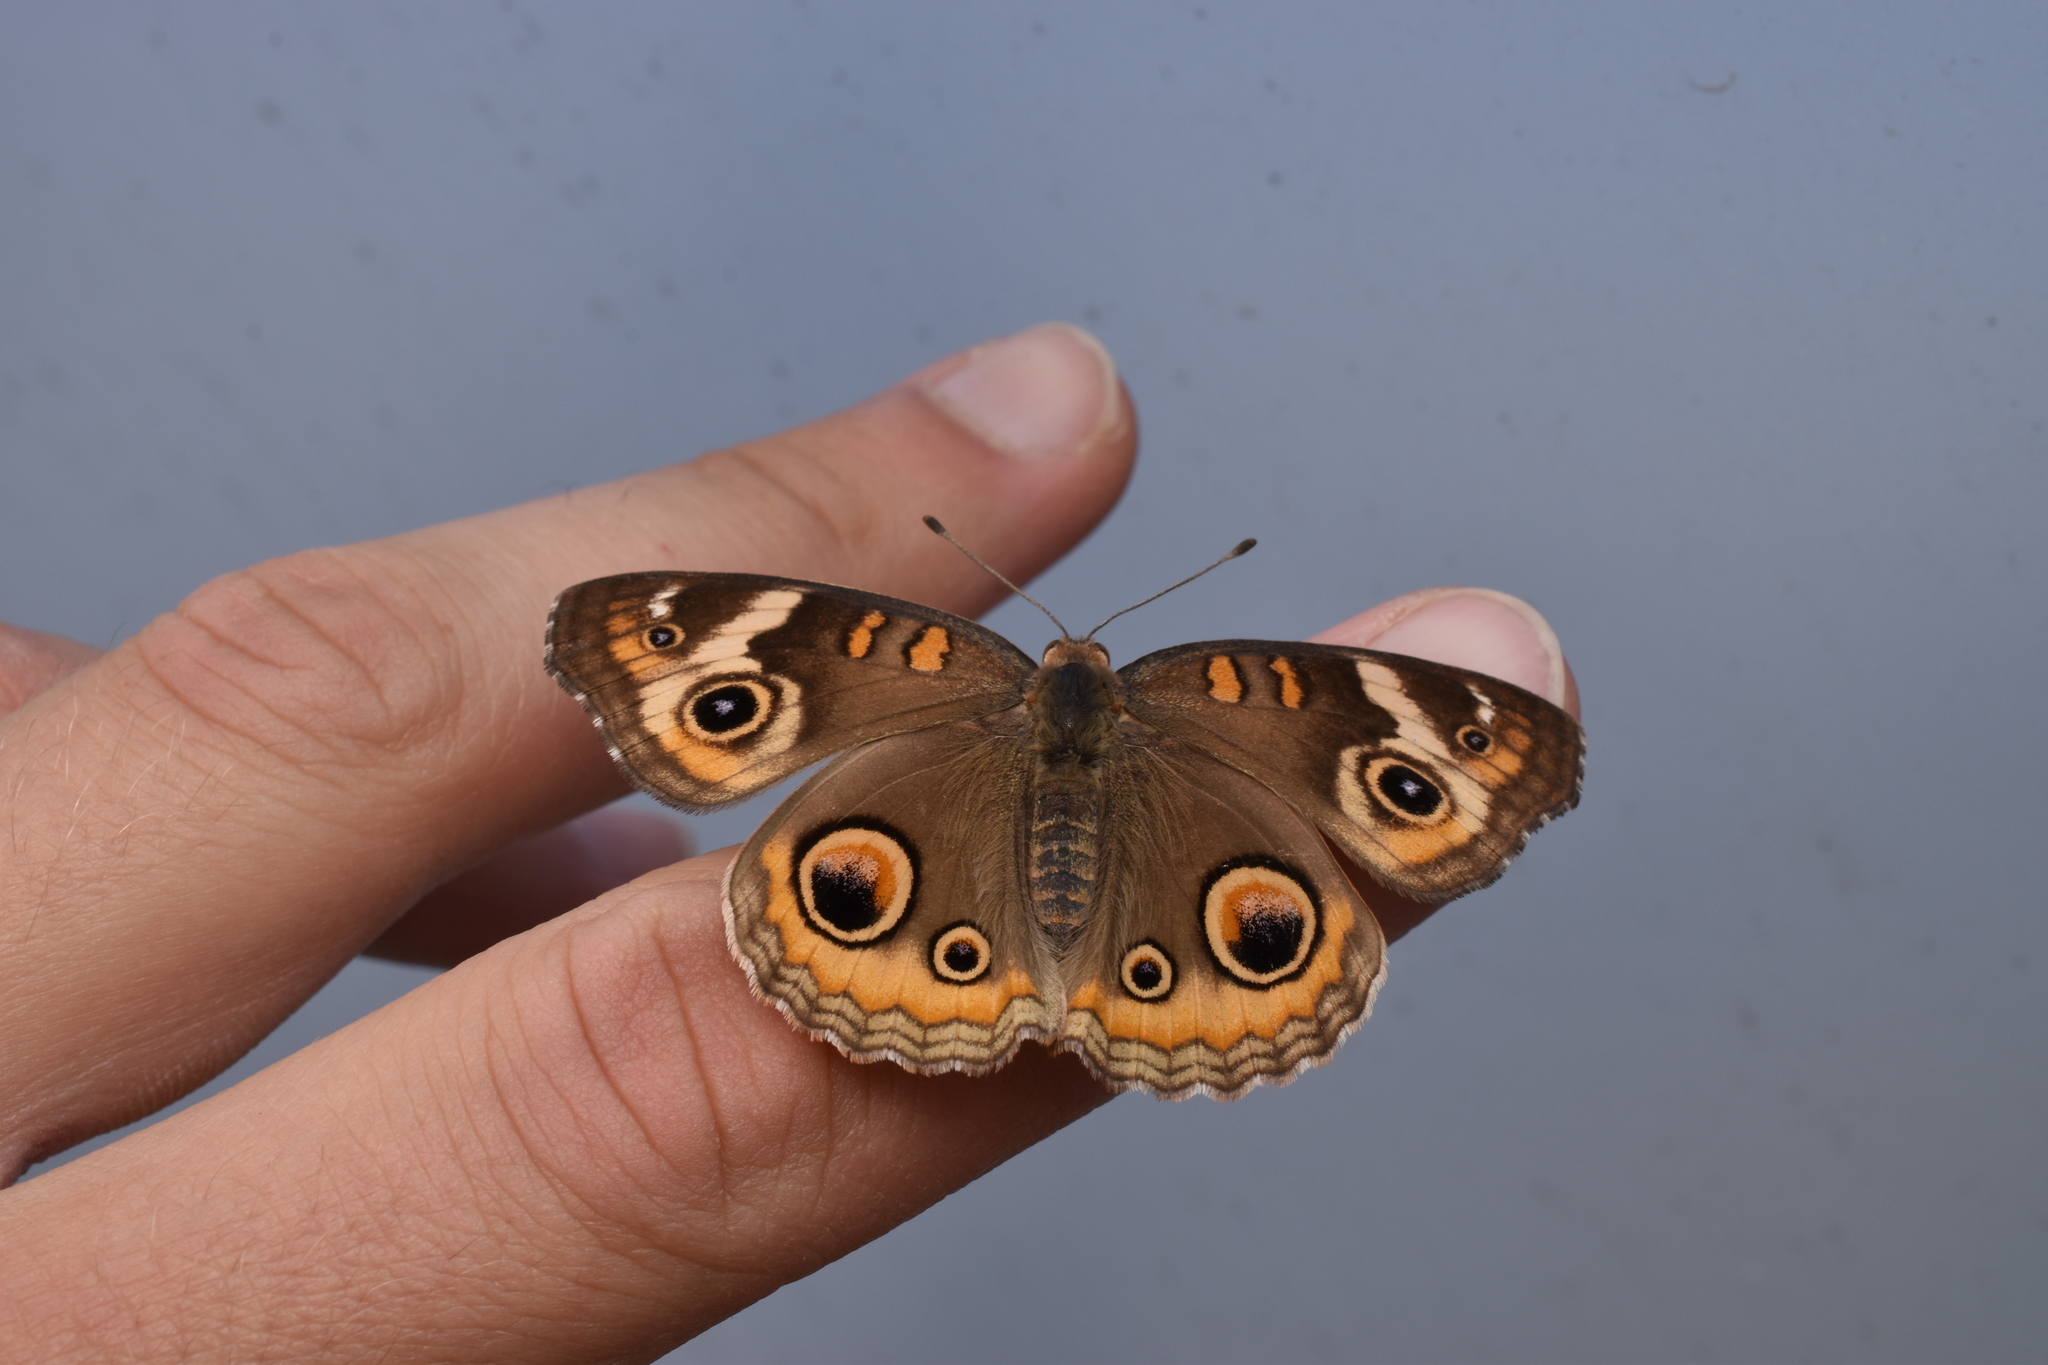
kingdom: Animalia
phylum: Arthropoda
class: Insecta
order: Lepidoptera
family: Nymphalidae
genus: Junonia
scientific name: Junonia coenia
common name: Common buckeye
